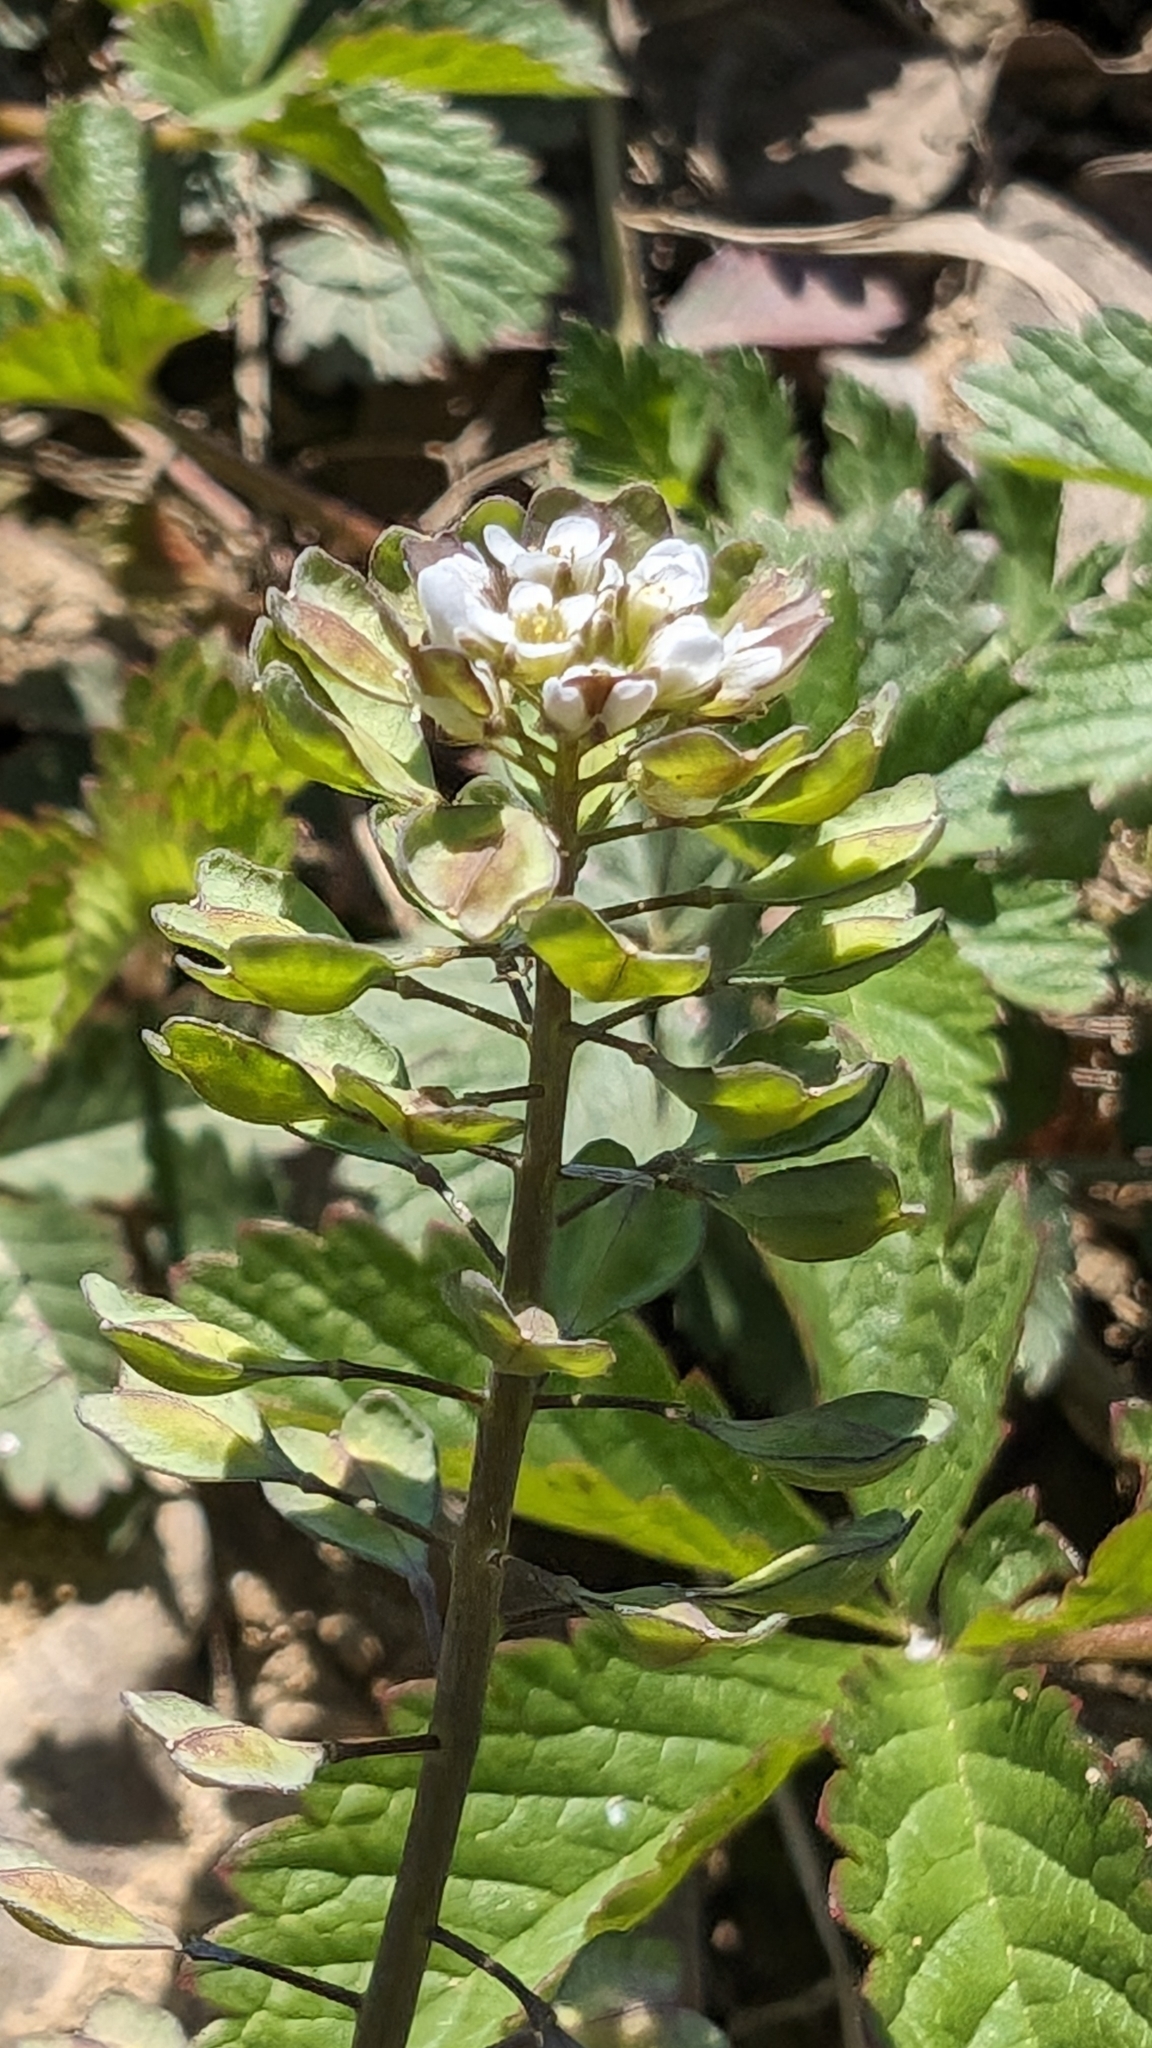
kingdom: Plantae
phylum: Tracheophyta
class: Magnoliopsida
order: Brassicales
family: Brassicaceae
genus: Noccaea
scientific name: Noccaea perfoliata
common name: Perfoliate pennycress
